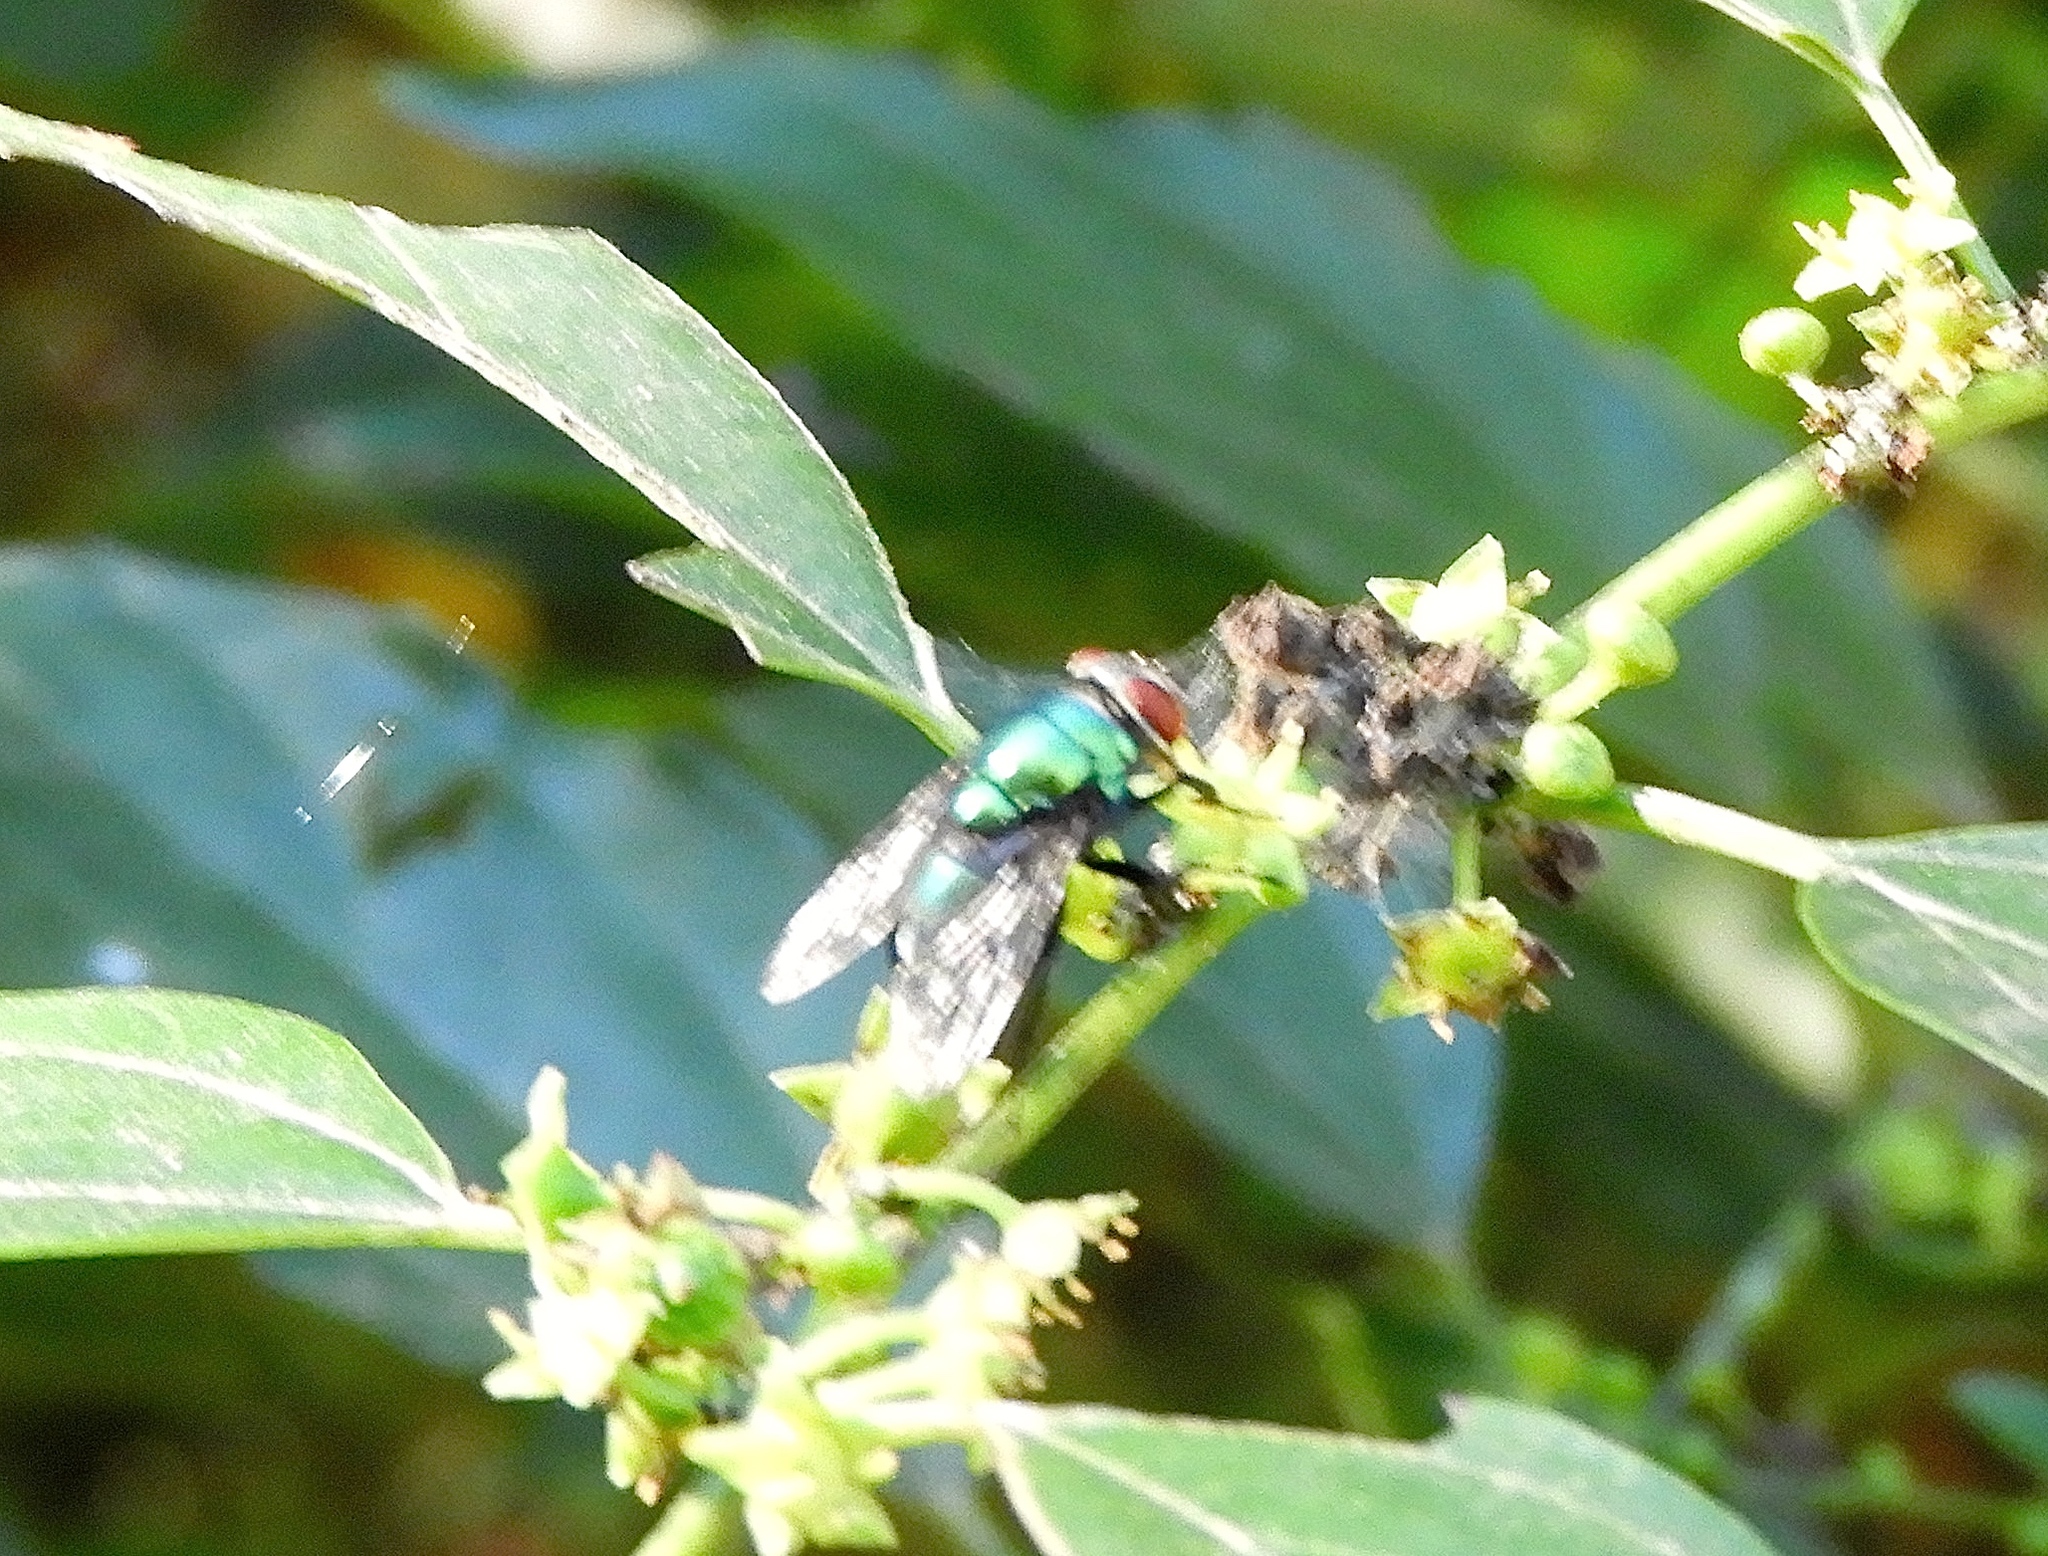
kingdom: Animalia
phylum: Arthropoda
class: Insecta
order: Diptera
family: Calliphoridae
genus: Lucilia
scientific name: Lucilia
